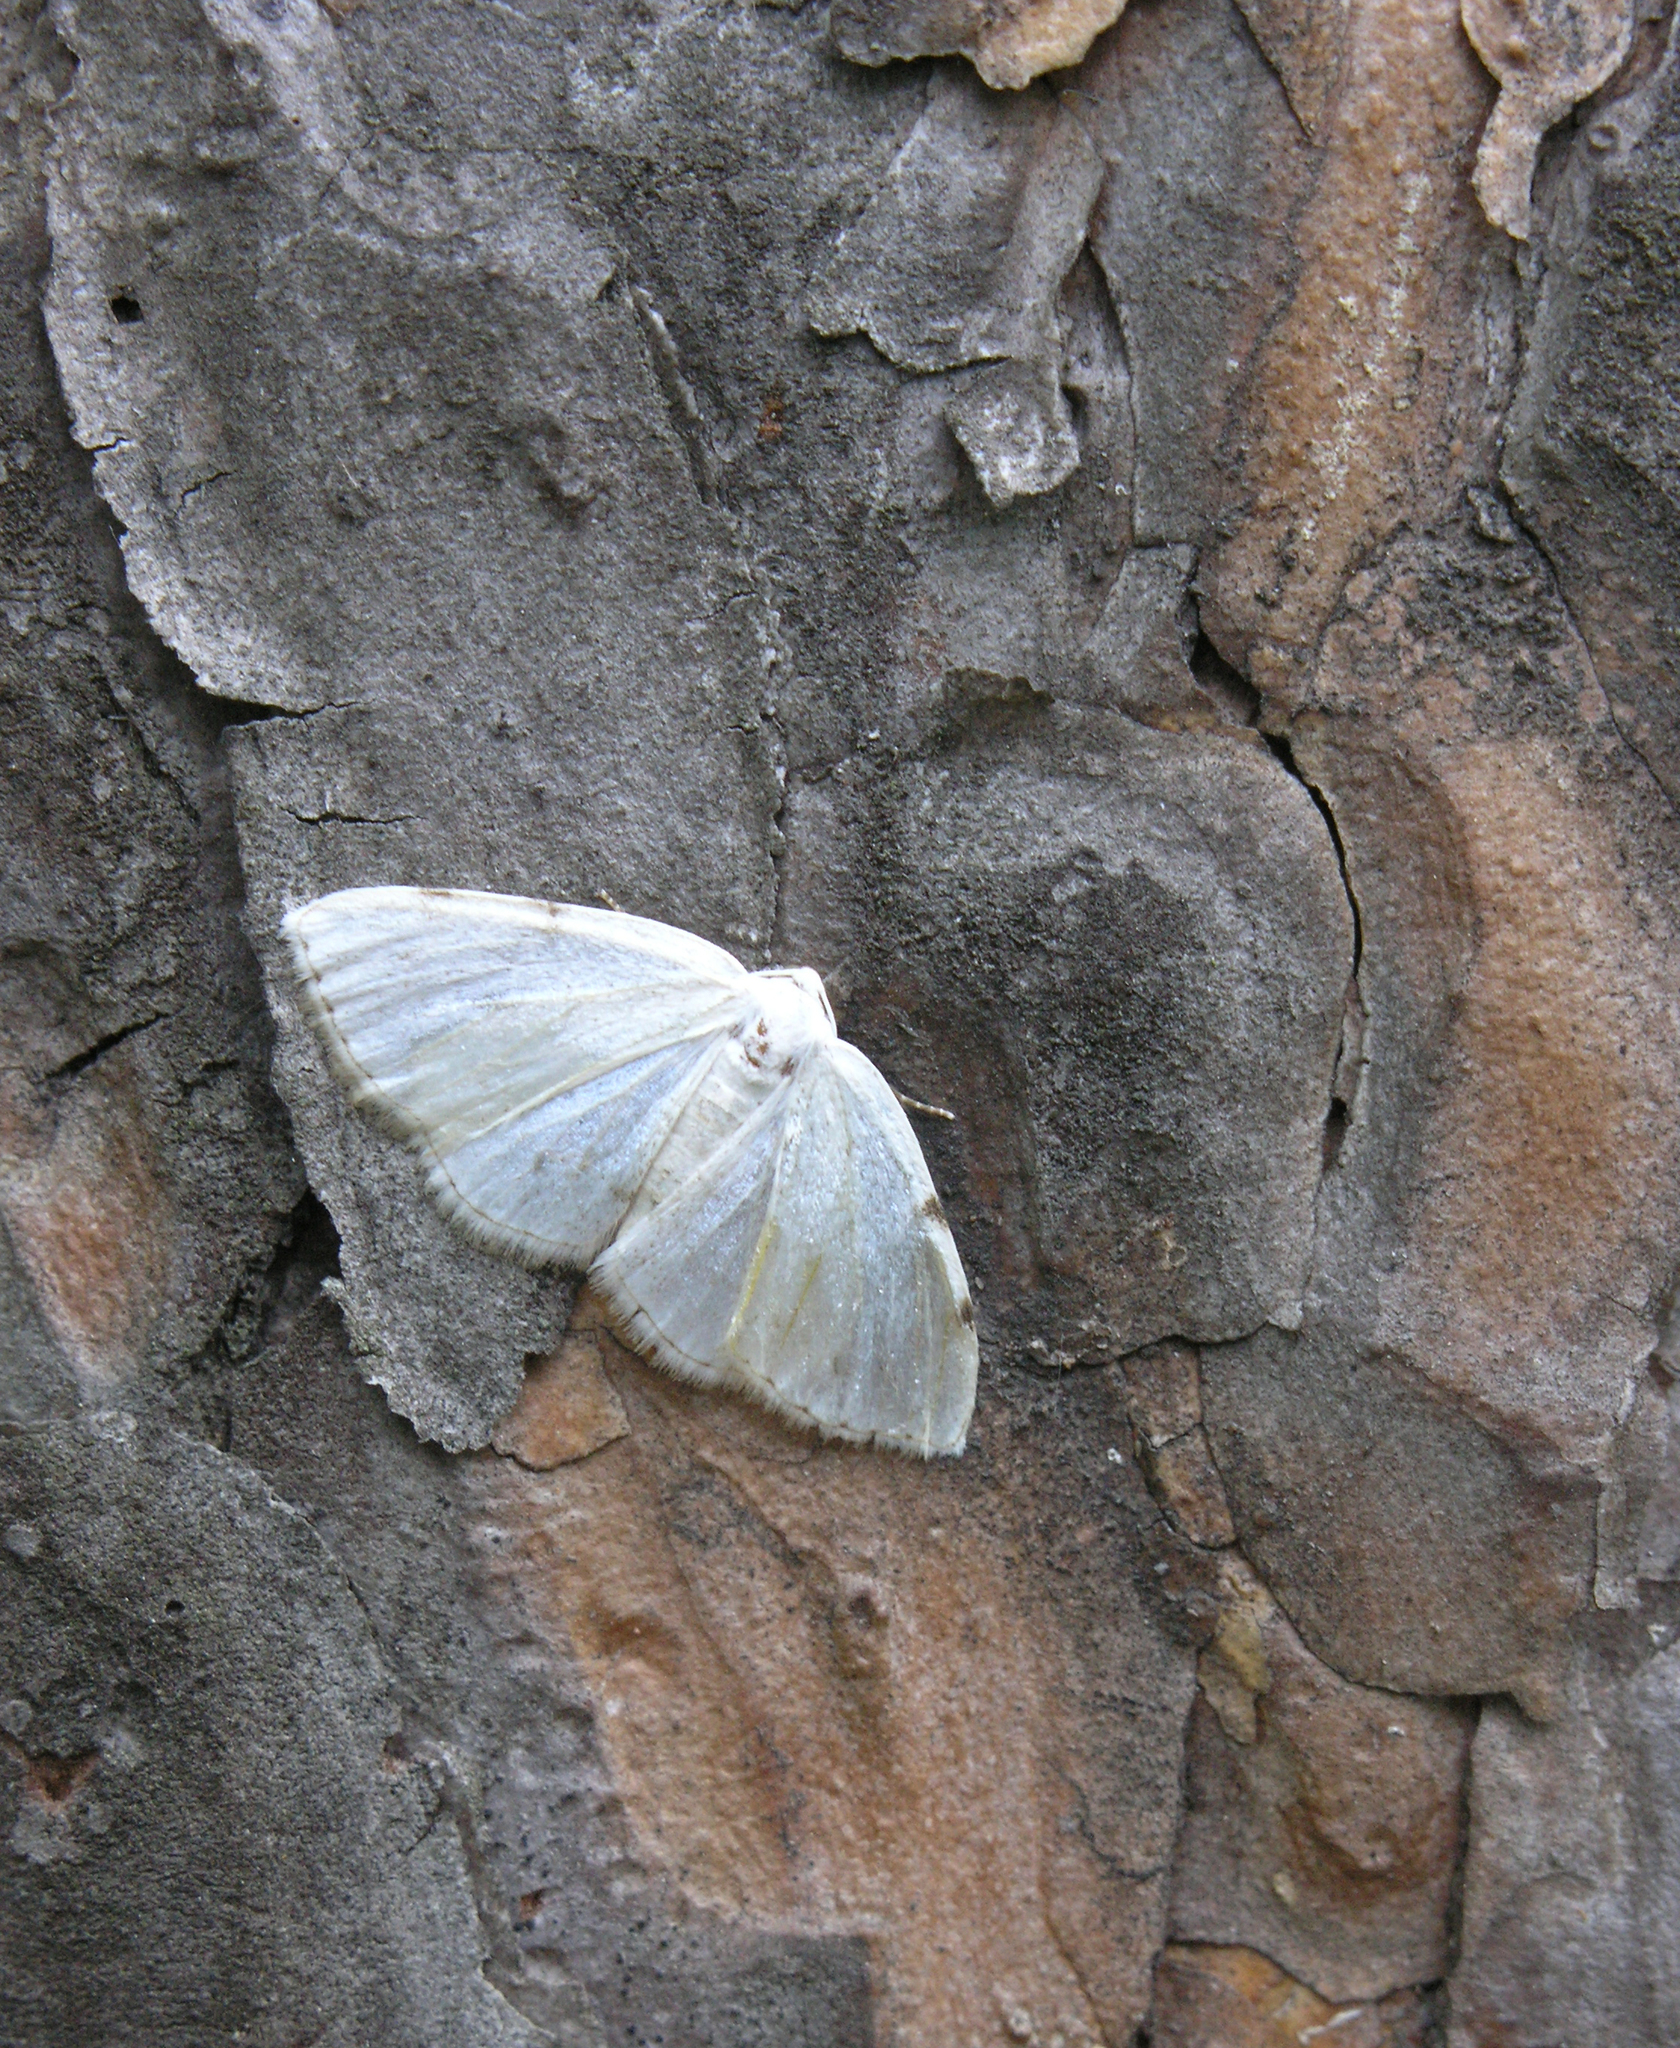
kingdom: Animalia
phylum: Arthropoda
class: Insecta
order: Lepidoptera
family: Geometridae
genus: Lomographa
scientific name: Lomographa bimaculata
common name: White-pinion spotted
